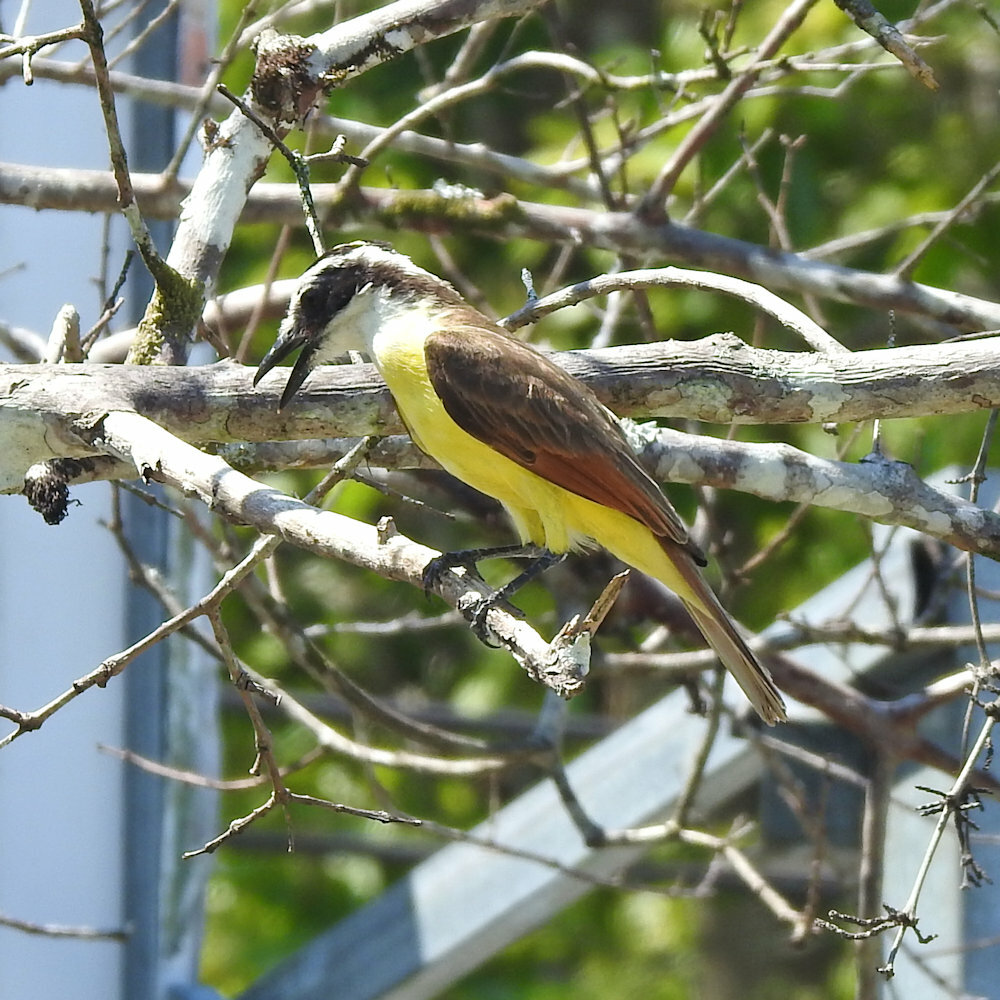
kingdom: Animalia
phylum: Chordata
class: Aves
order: Passeriformes
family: Tyrannidae
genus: Pitangus
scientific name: Pitangus sulphuratus
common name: Great kiskadee
